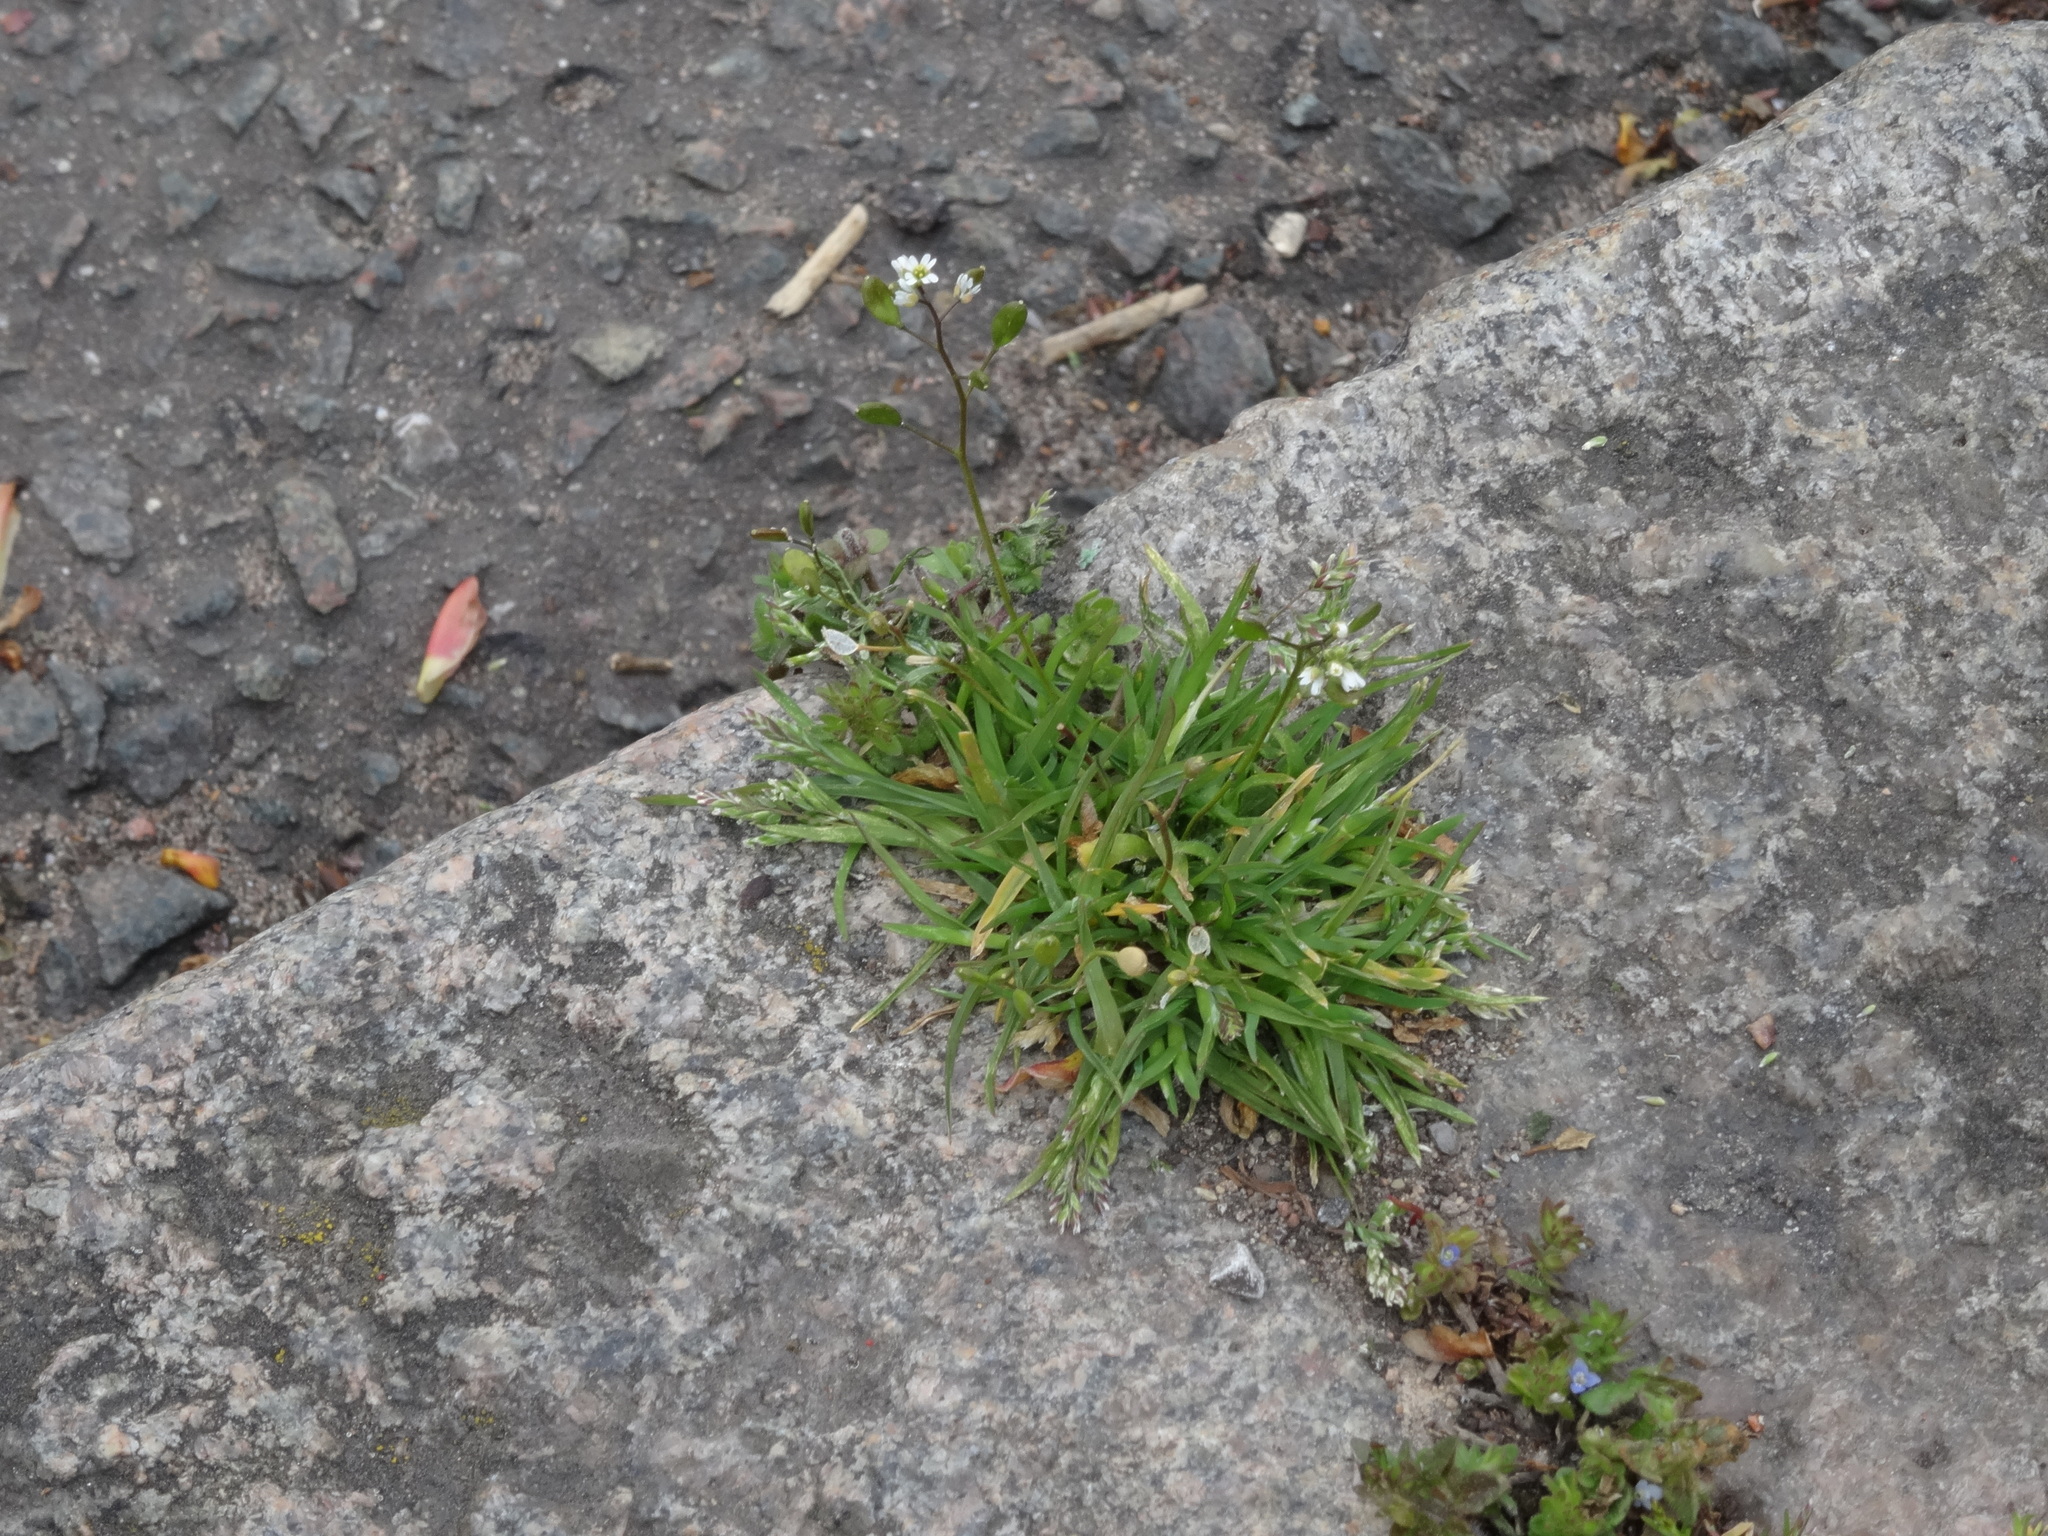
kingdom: Plantae
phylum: Tracheophyta
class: Magnoliopsida
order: Brassicales
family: Brassicaceae
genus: Draba
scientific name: Draba verna
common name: Spring draba
